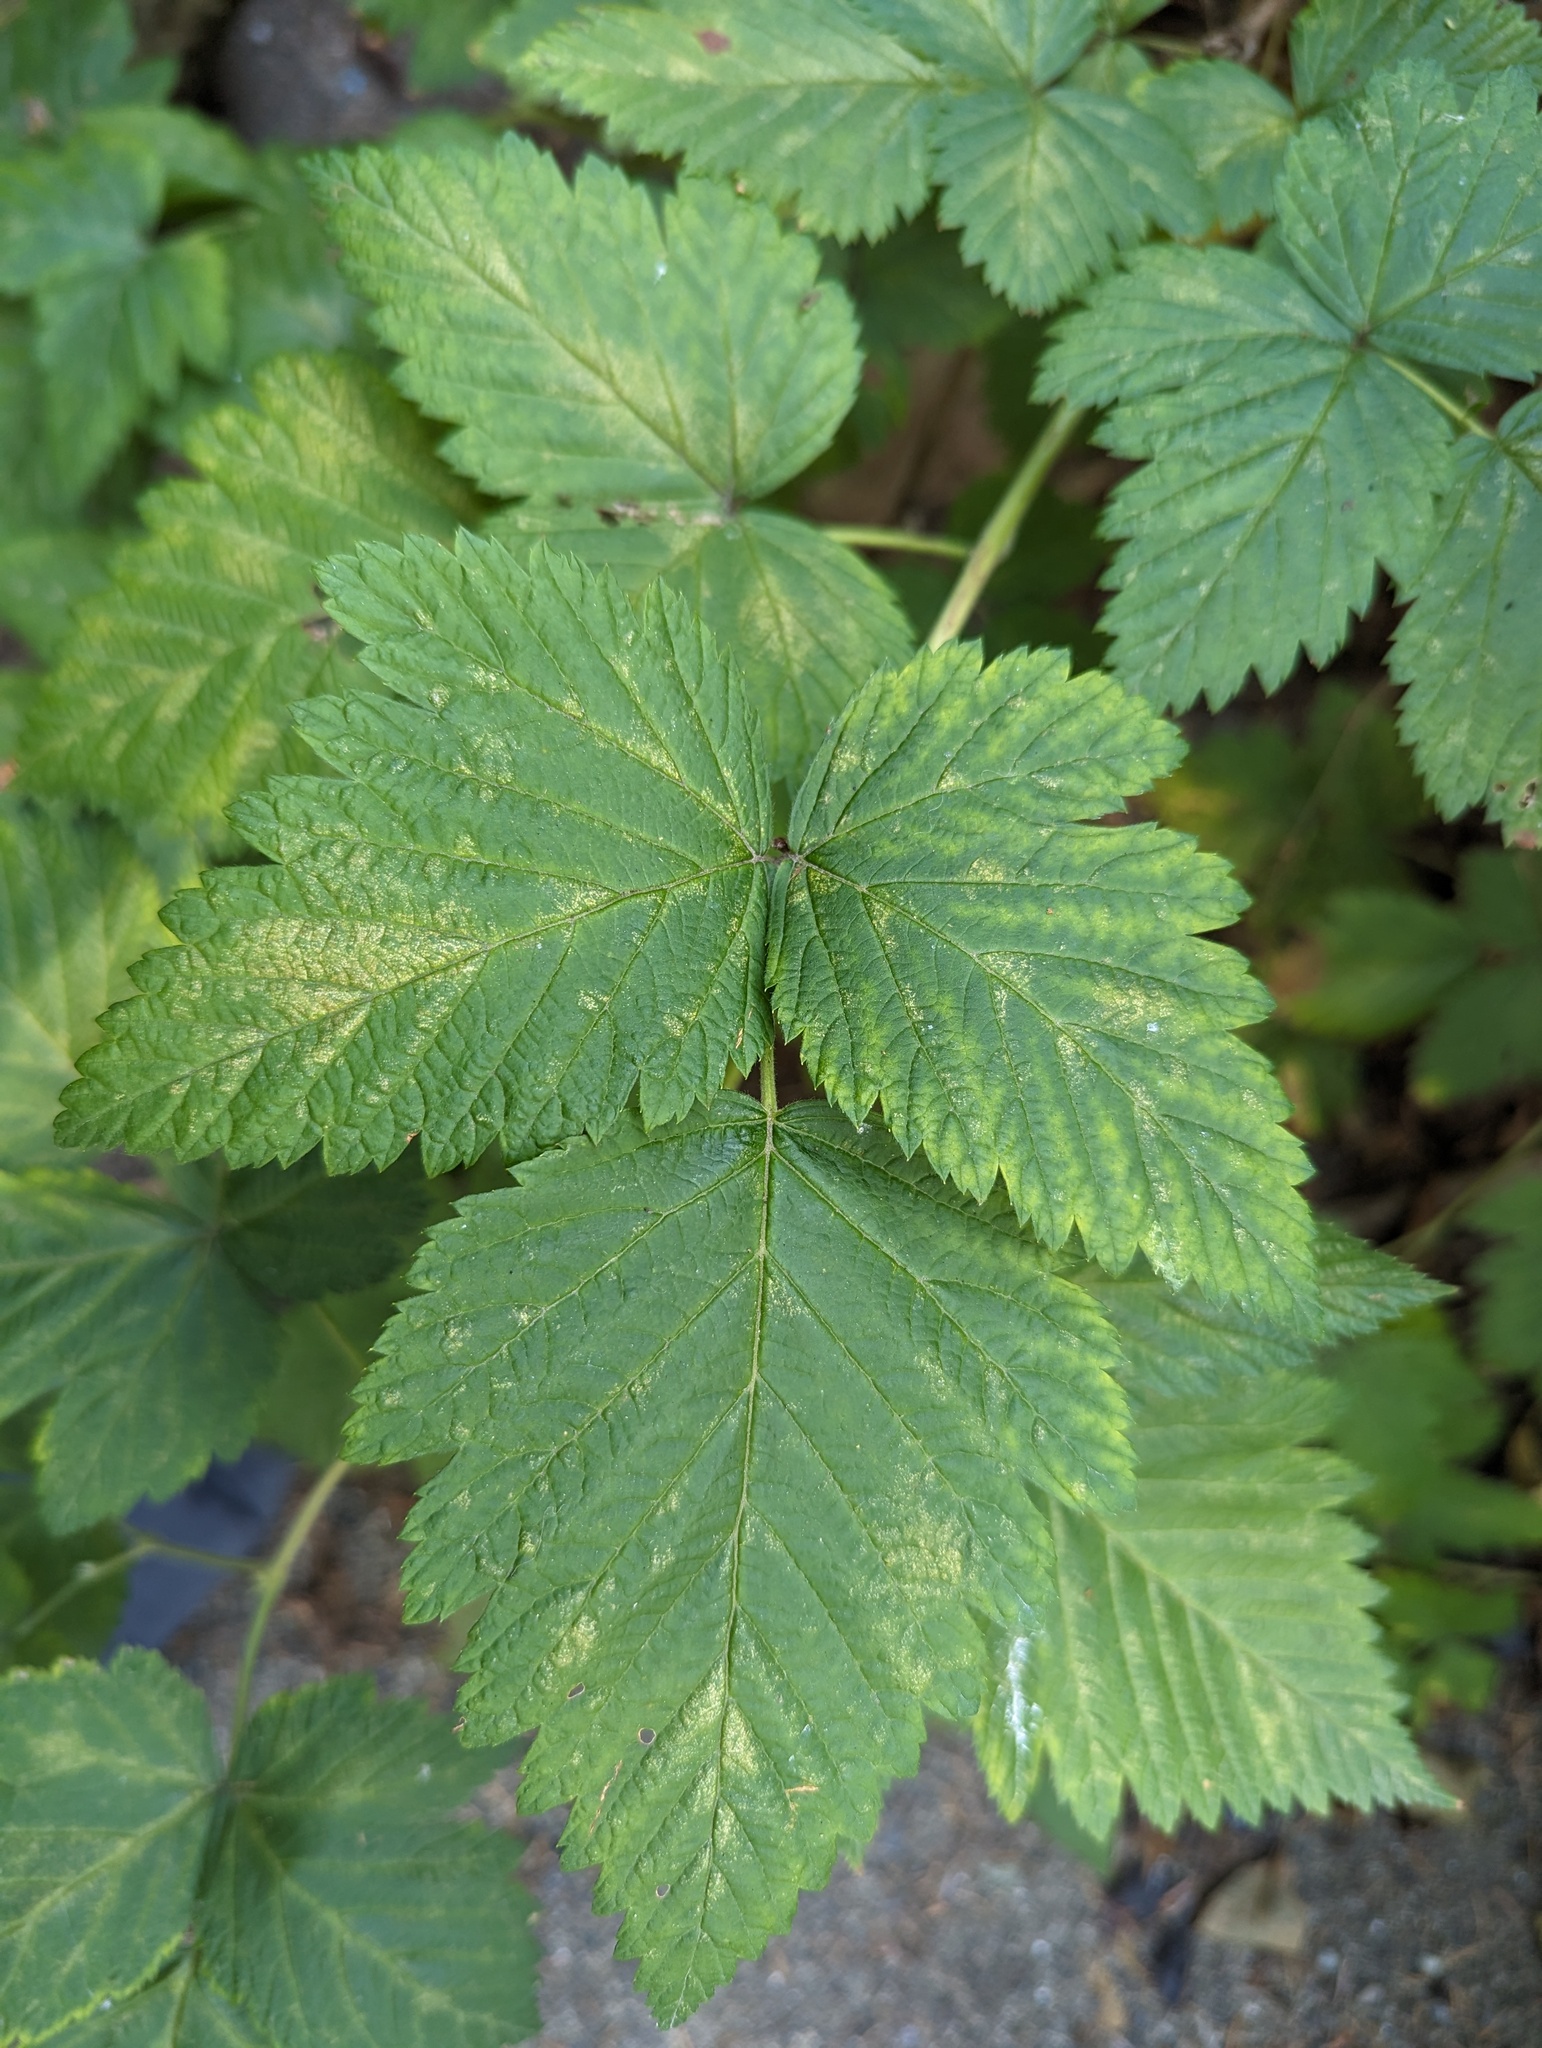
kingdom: Plantae
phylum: Tracheophyta
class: Magnoliopsida
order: Rosales
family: Rosaceae
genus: Rubus
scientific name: Rubus spectabilis
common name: Salmonberry
